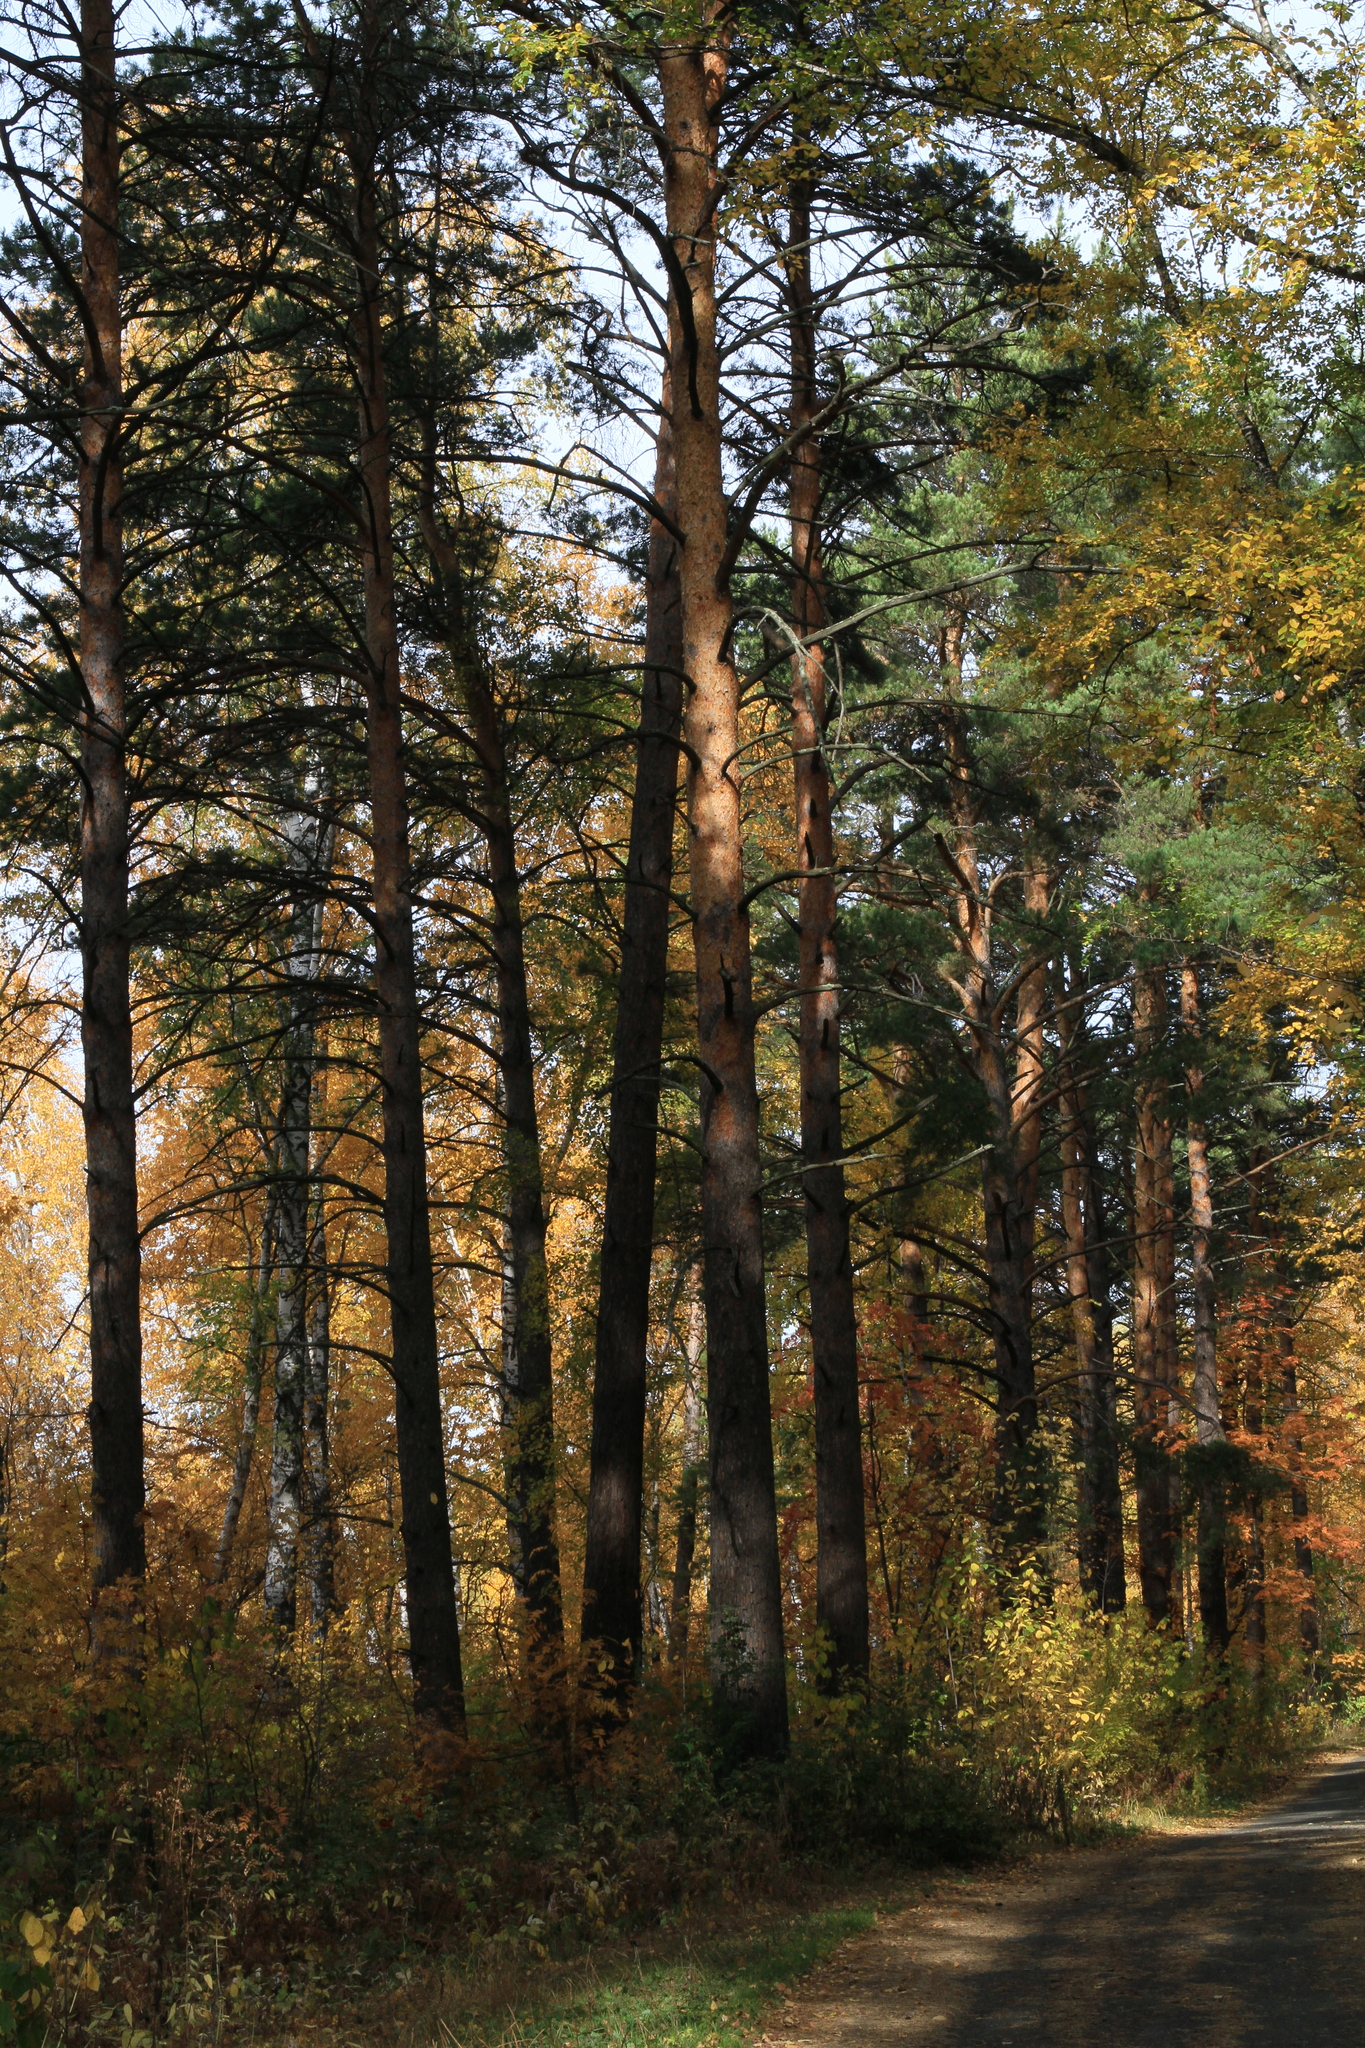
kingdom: Plantae
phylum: Tracheophyta
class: Pinopsida
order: Pinales
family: Pinaceae
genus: Pinus
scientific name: Pinus sylvestris
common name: Scots pine
